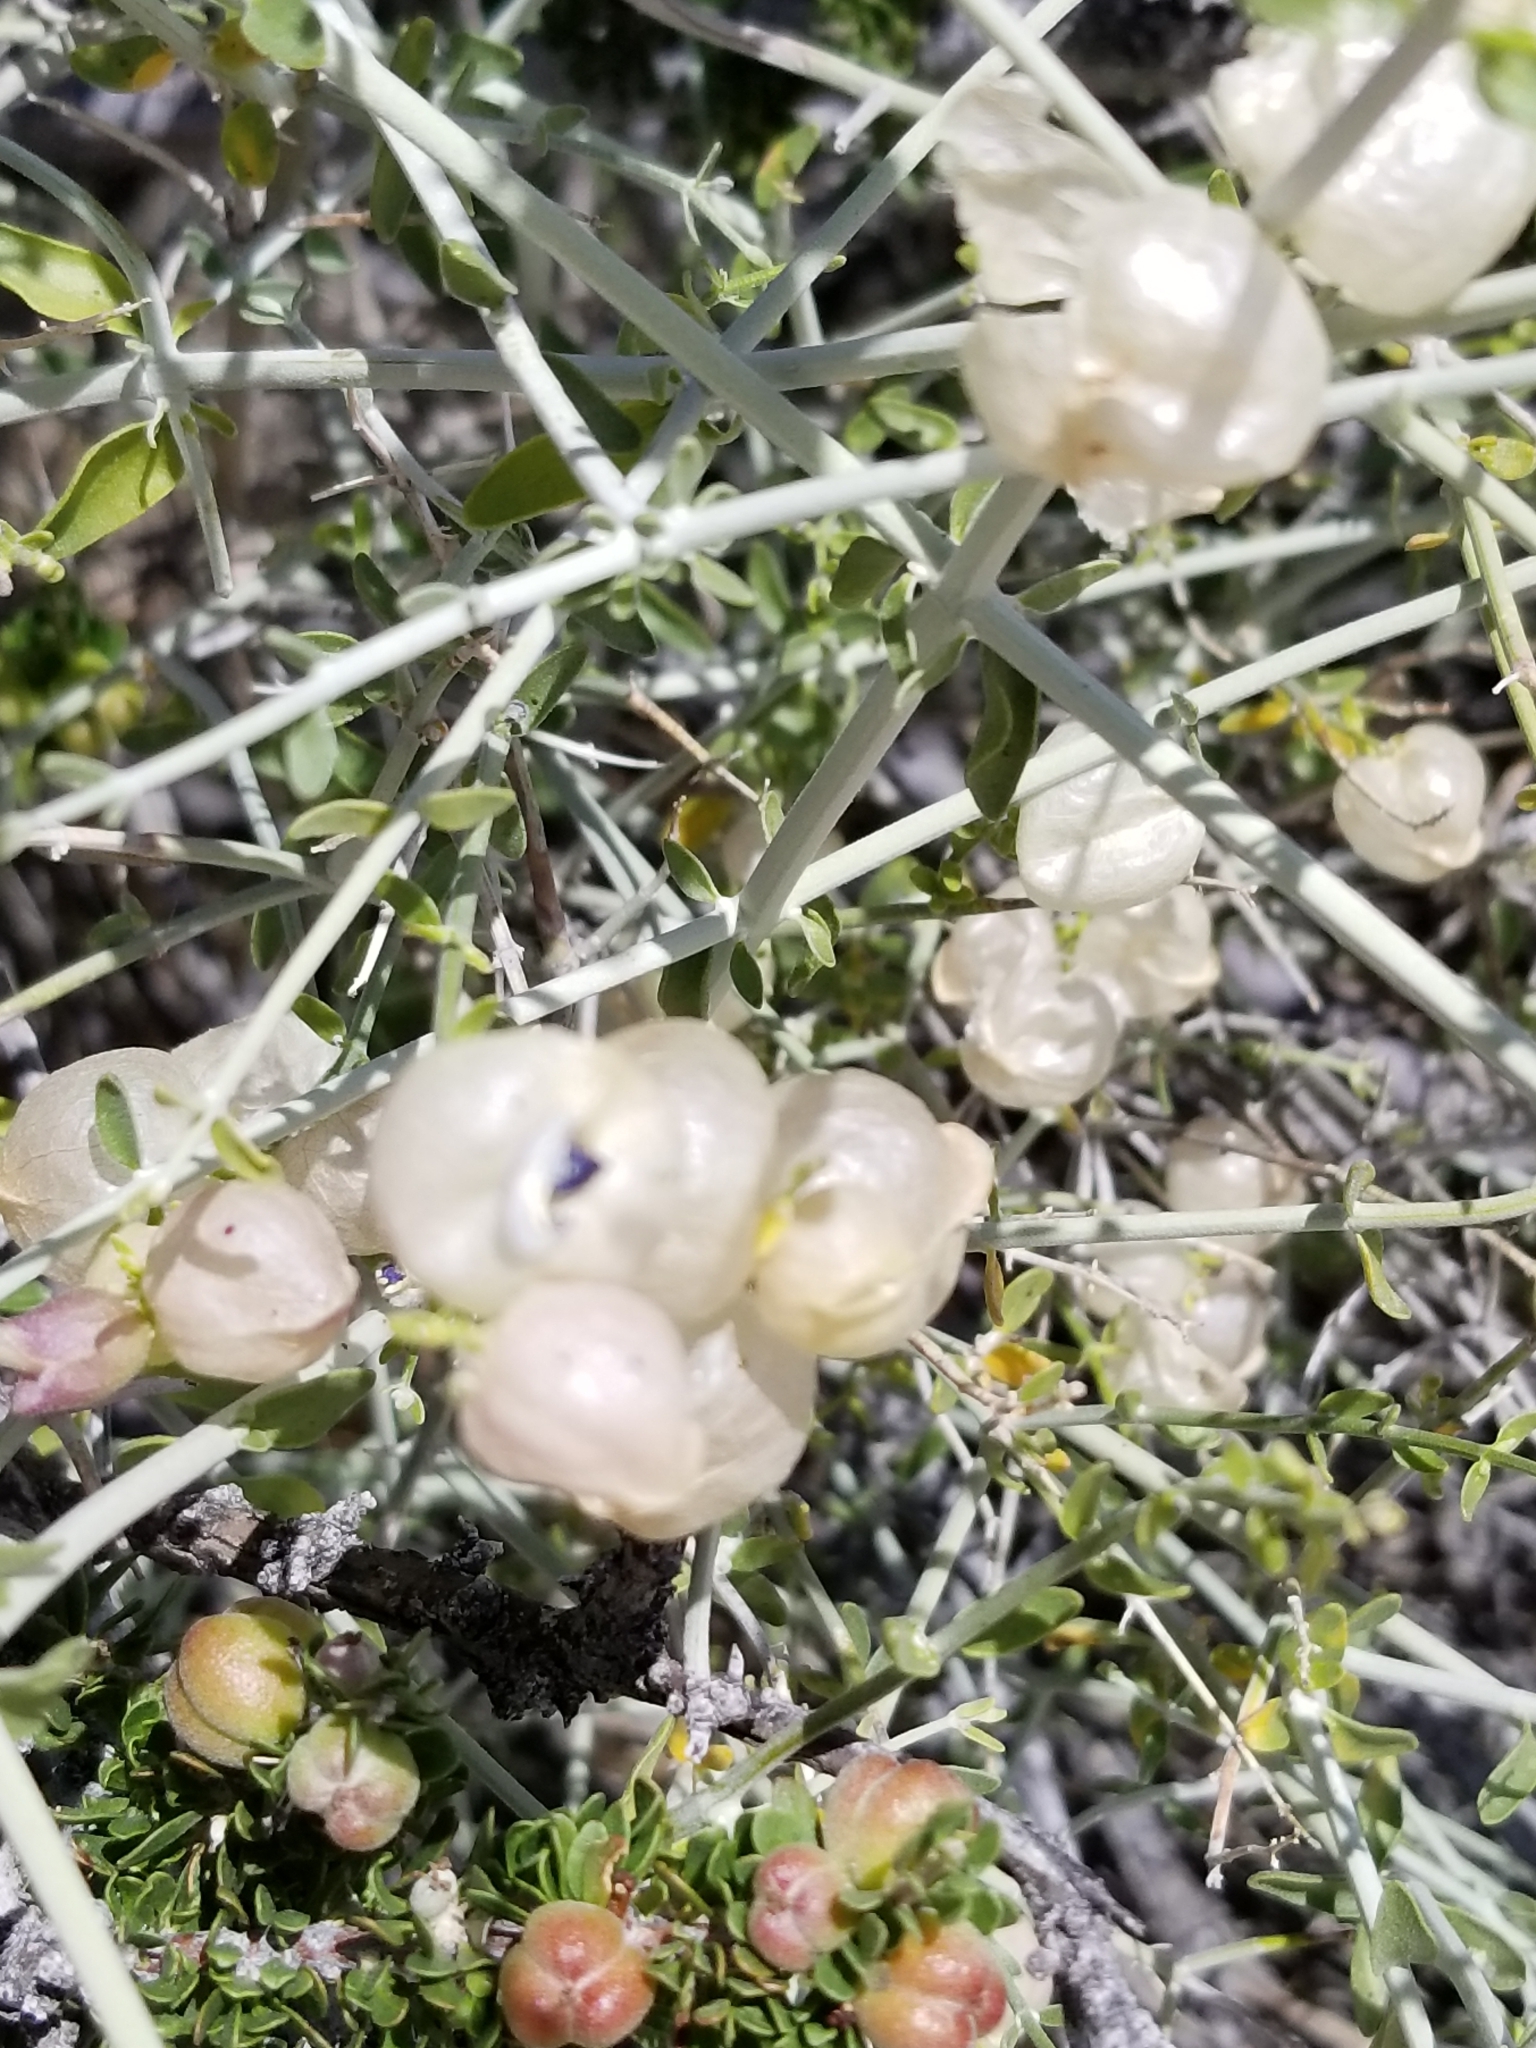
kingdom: Plantae
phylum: Tracheophyta
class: Magnoliopsida
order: Lamiales
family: Lamiaceae
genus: Scutellaria
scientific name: Scutellaria mexicana
